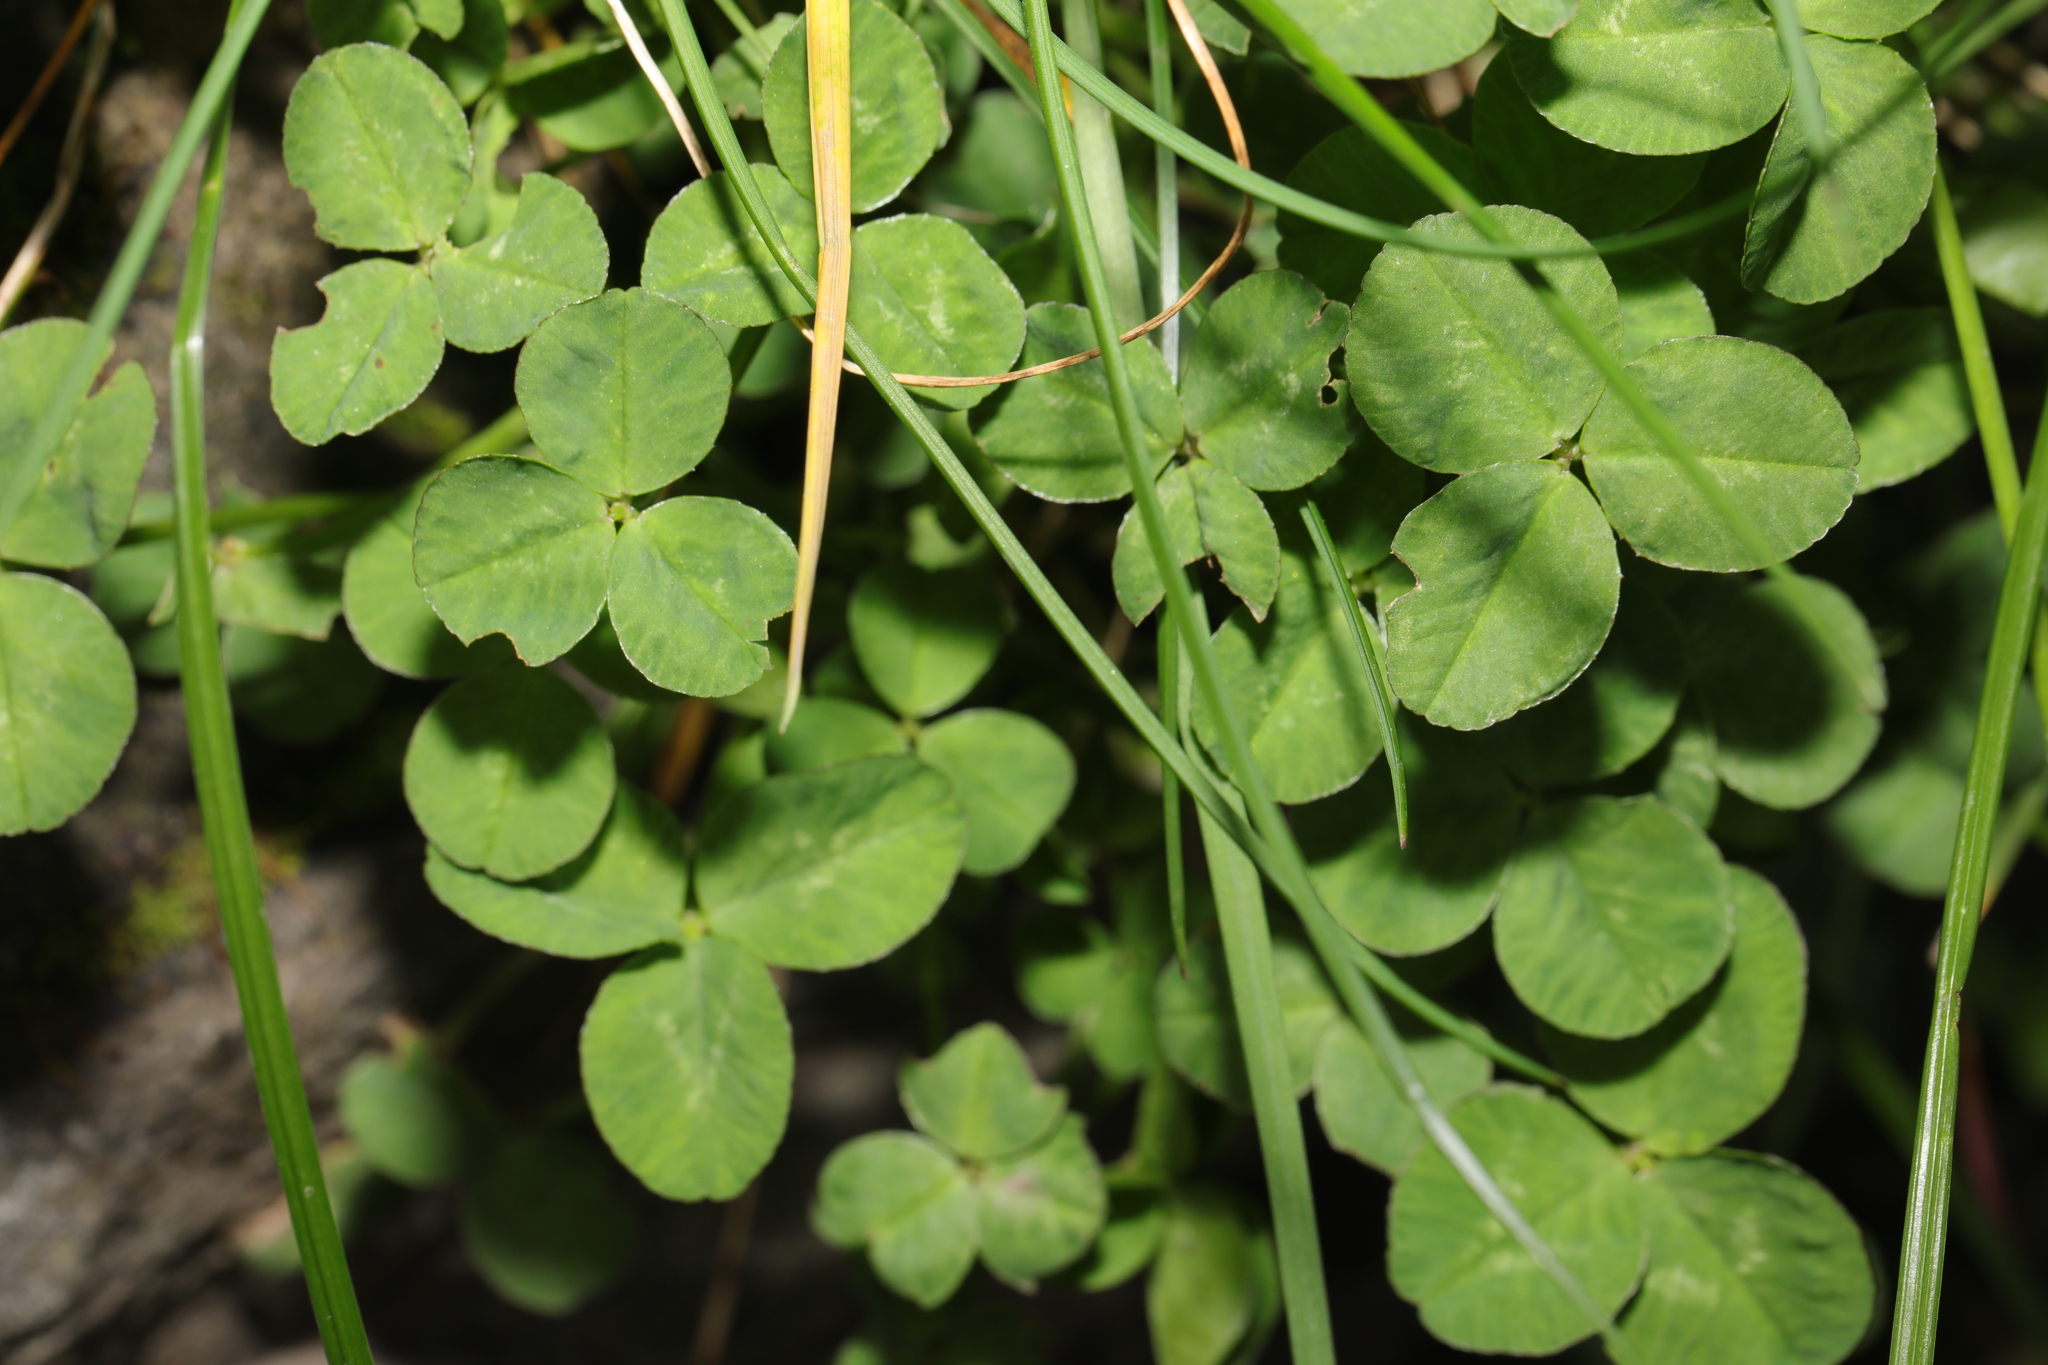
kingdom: Plantae
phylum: Tracheophyta
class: Magnoliopsida
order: Fabales
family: Fabaceae
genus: Trifolium
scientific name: Trifolium repens
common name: White clover
